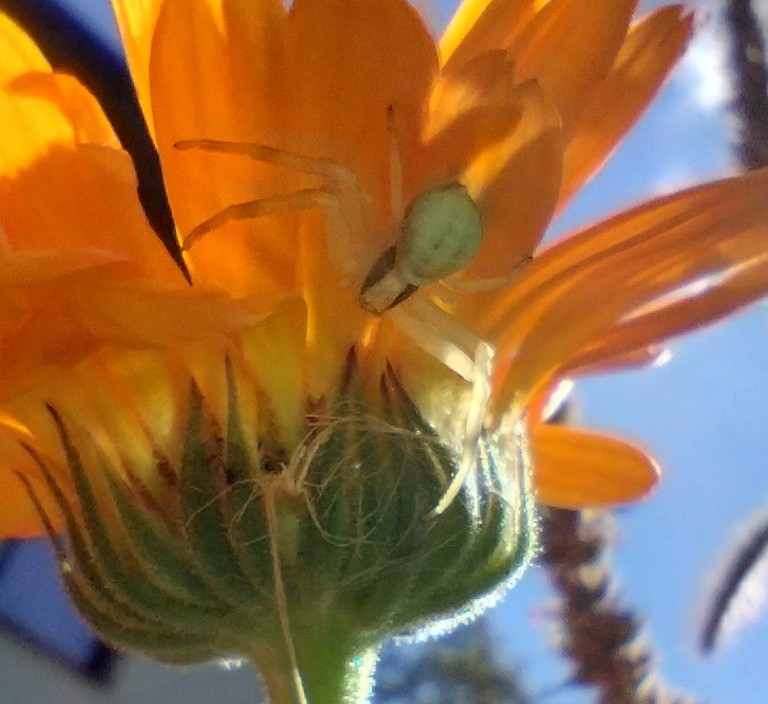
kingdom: Animalia
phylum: Arthropoda
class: Arachnida
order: Araneae
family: Thomisidae
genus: Misumena
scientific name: Misumena vatia
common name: Goldenrod crab spider
